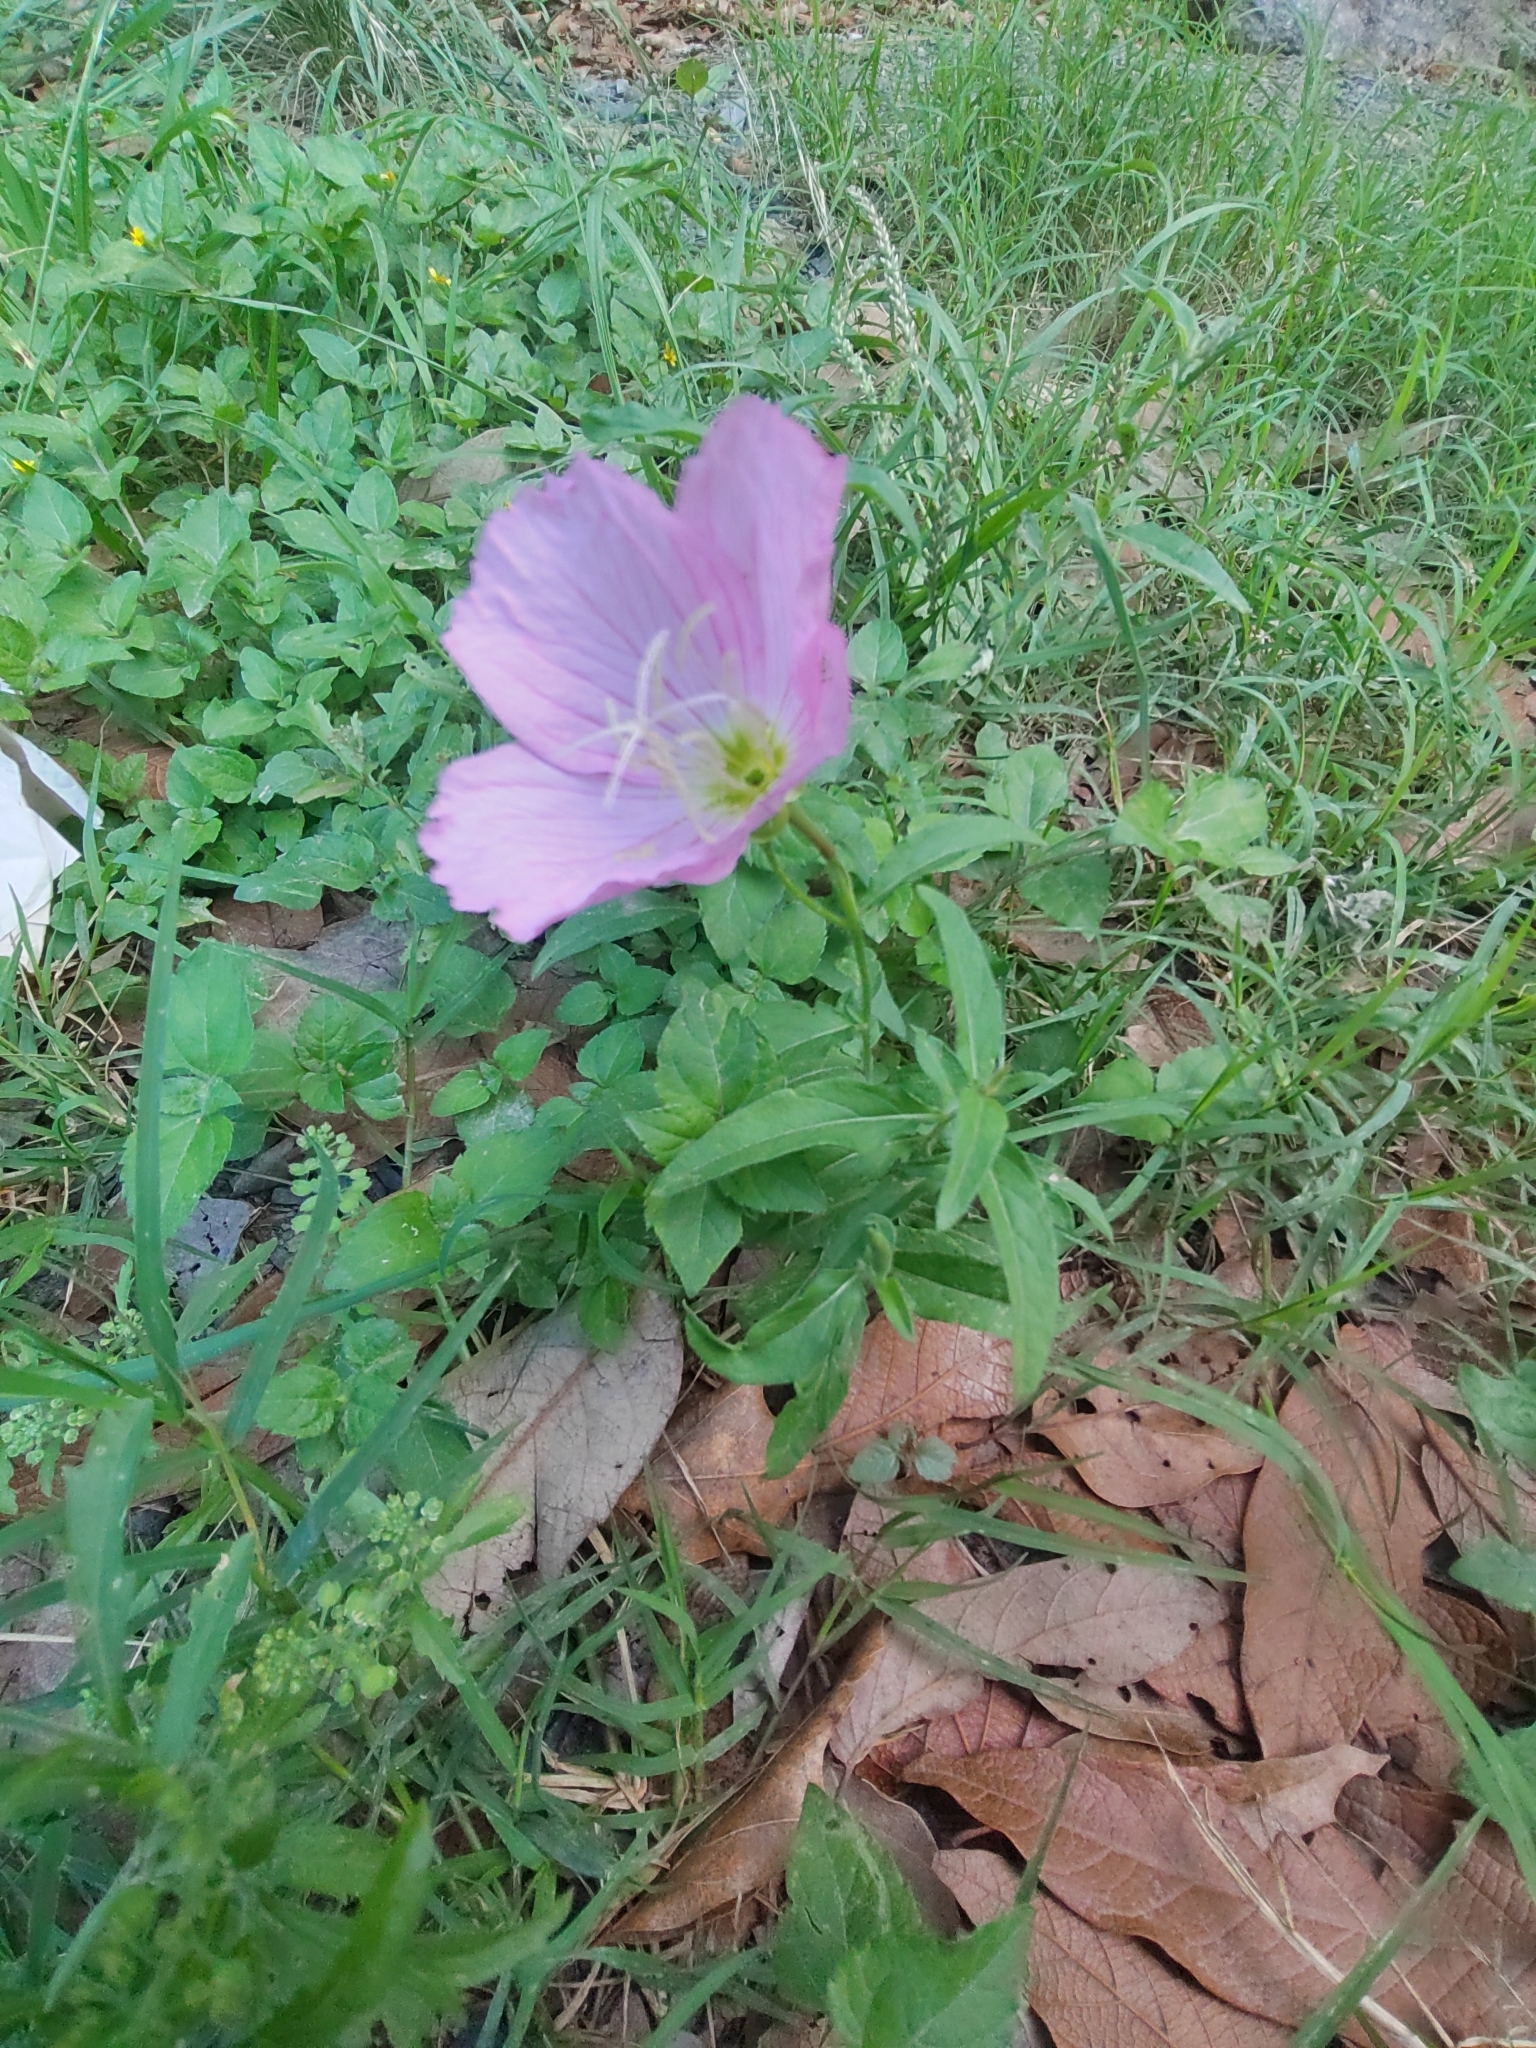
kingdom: Plantae
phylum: Tracheophyta
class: Magnoliopsida
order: Myrtales
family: Onagraceae
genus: Oenothera
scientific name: Oenothera speciosa
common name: White evening-primrose
